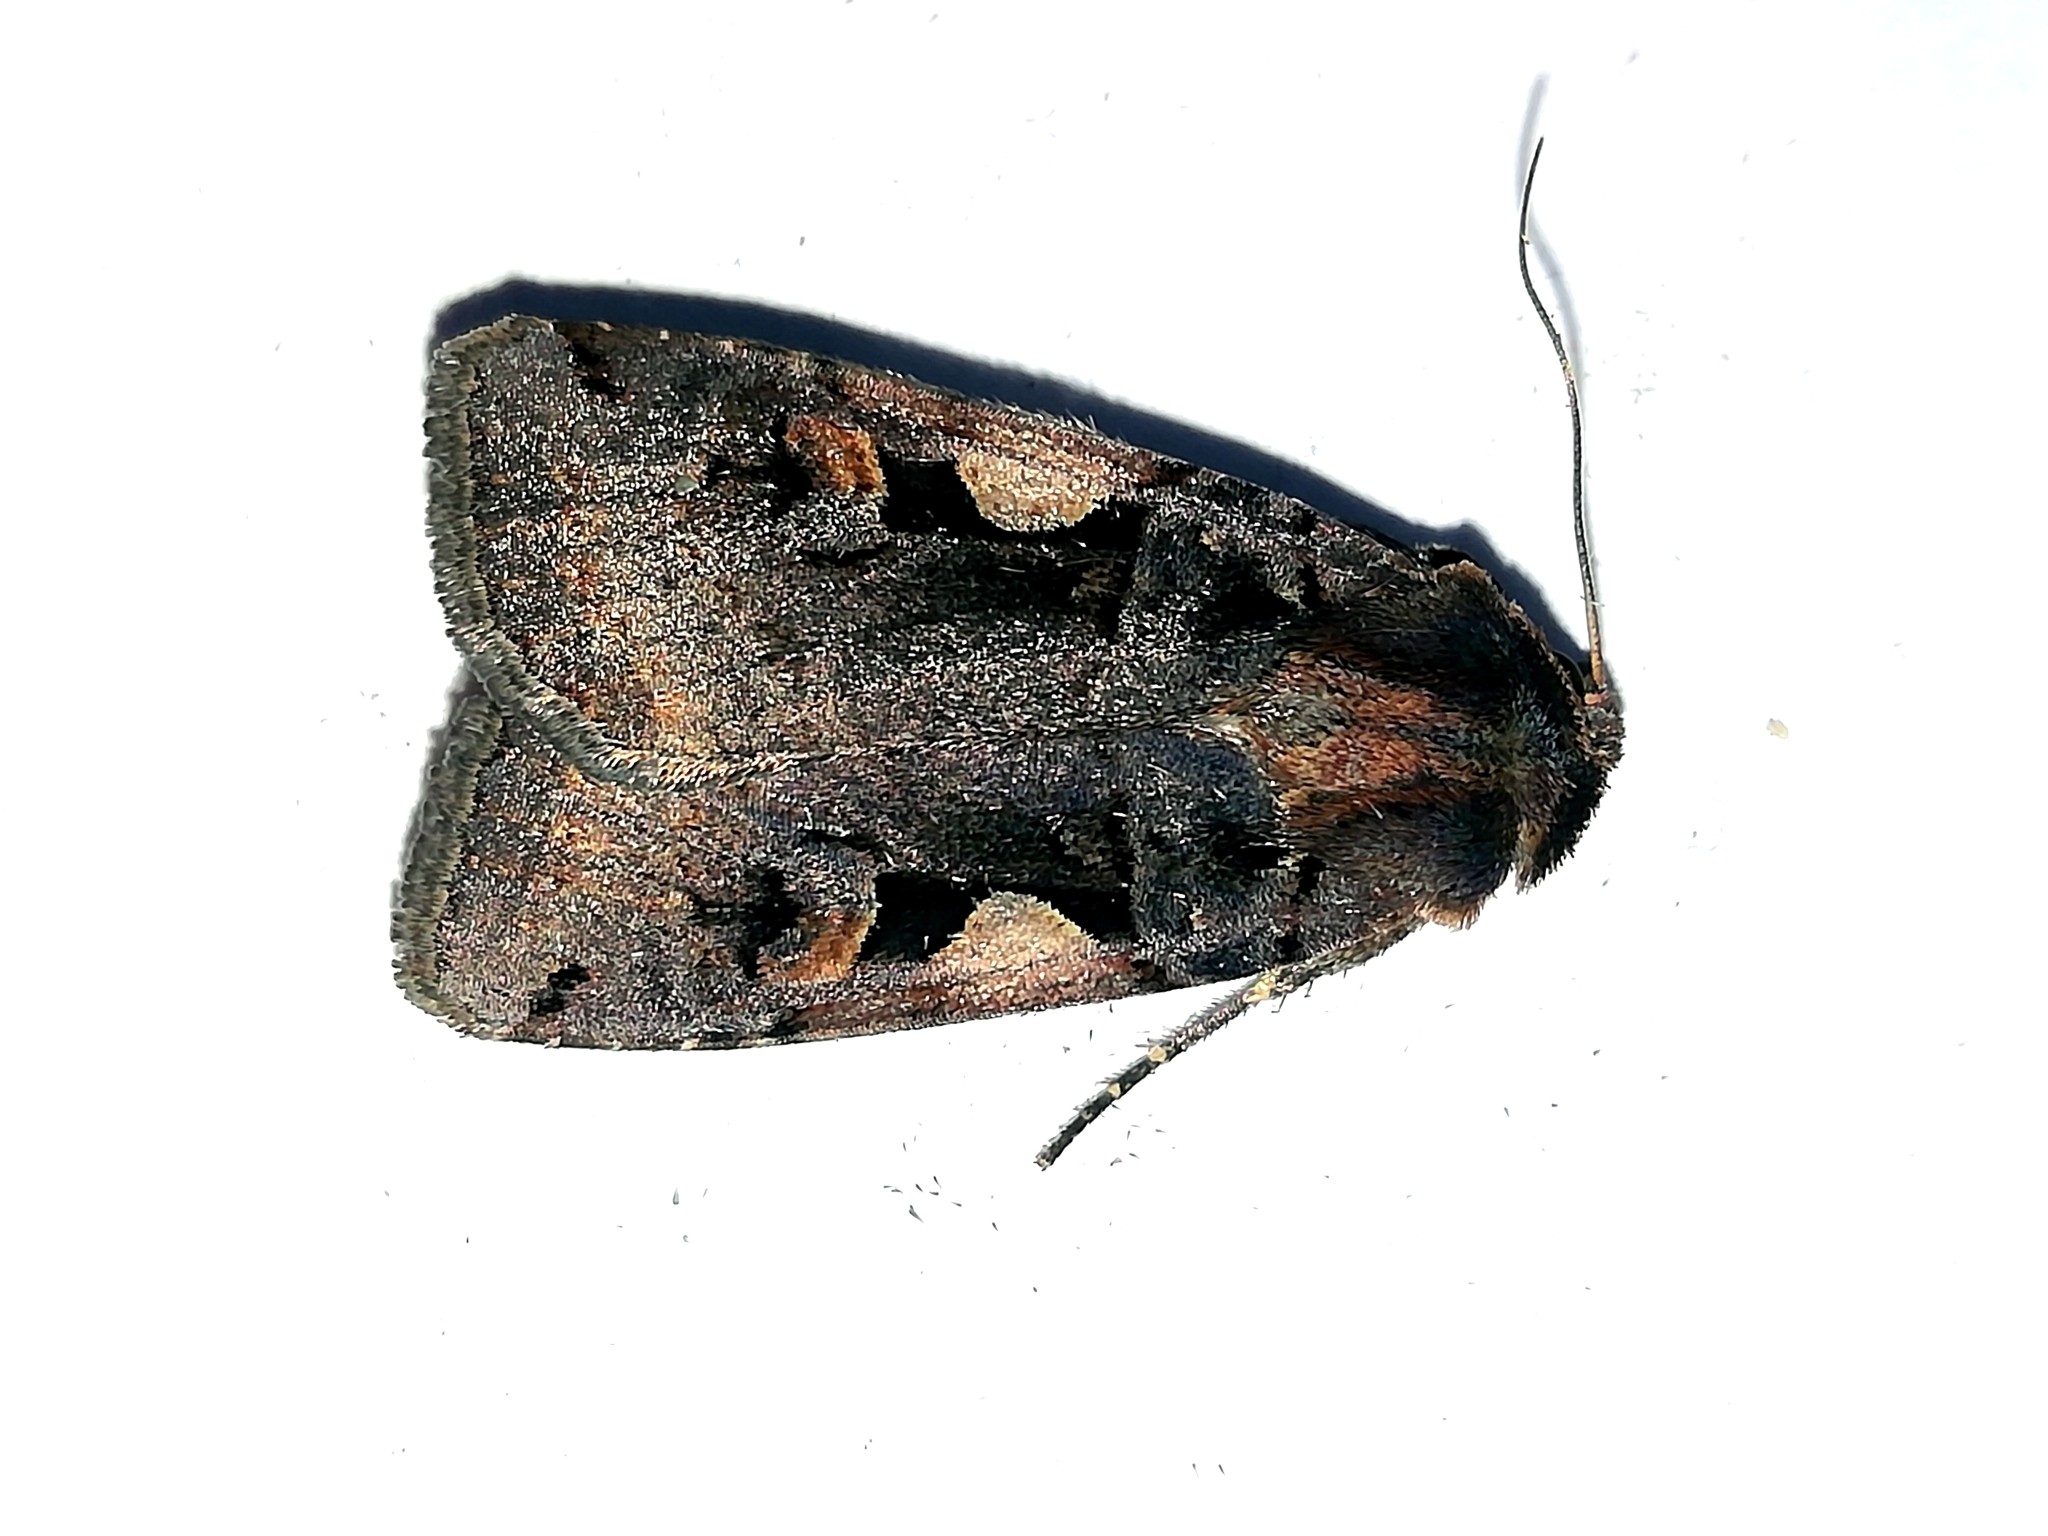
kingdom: Animalia
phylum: Arthropoda
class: Insecta
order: Lepidoptera
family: Noctuidae
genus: Xestia
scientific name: Xestia c-nigrum
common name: Setaceous hebrew character
